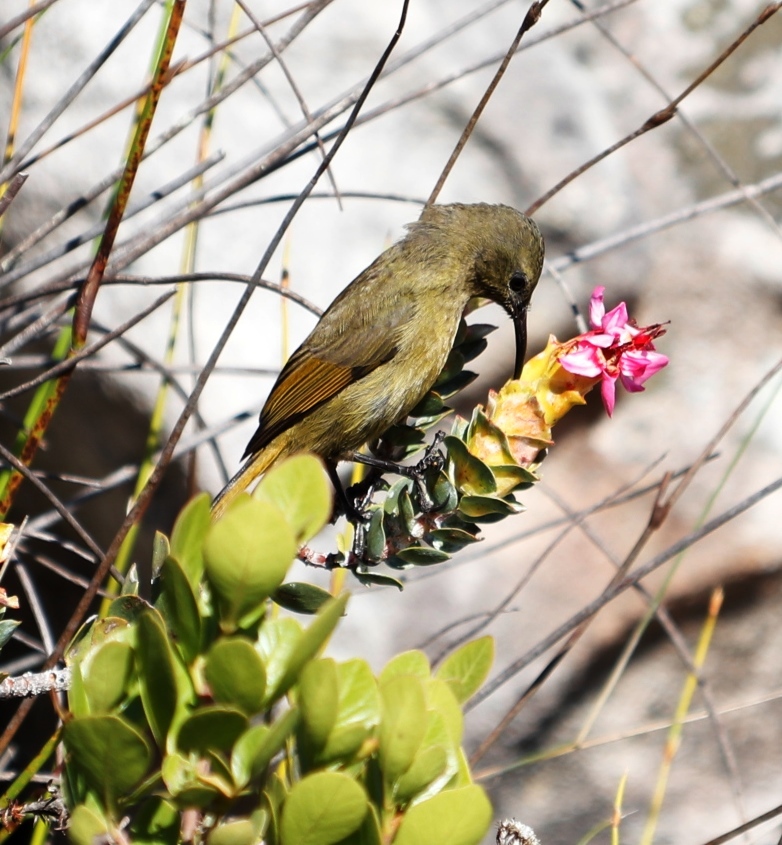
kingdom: Animalia
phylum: Chordata
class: Aves
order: Passeriformes
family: Nectariniidae
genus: Anthobaphes
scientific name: Anthobaphes violacea
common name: Orange-breasted sunbird
